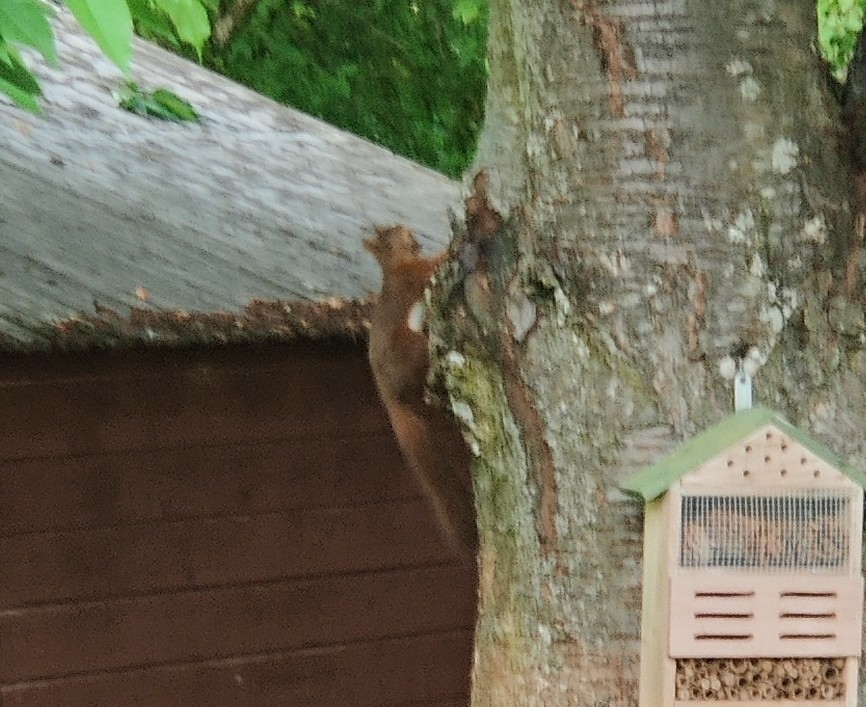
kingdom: Animalia
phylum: Chordata
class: Mammalia
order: Rodentia
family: Sciuridae
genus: Sciurus
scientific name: Sciurus vulgaris
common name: Eurasian red squirrel
